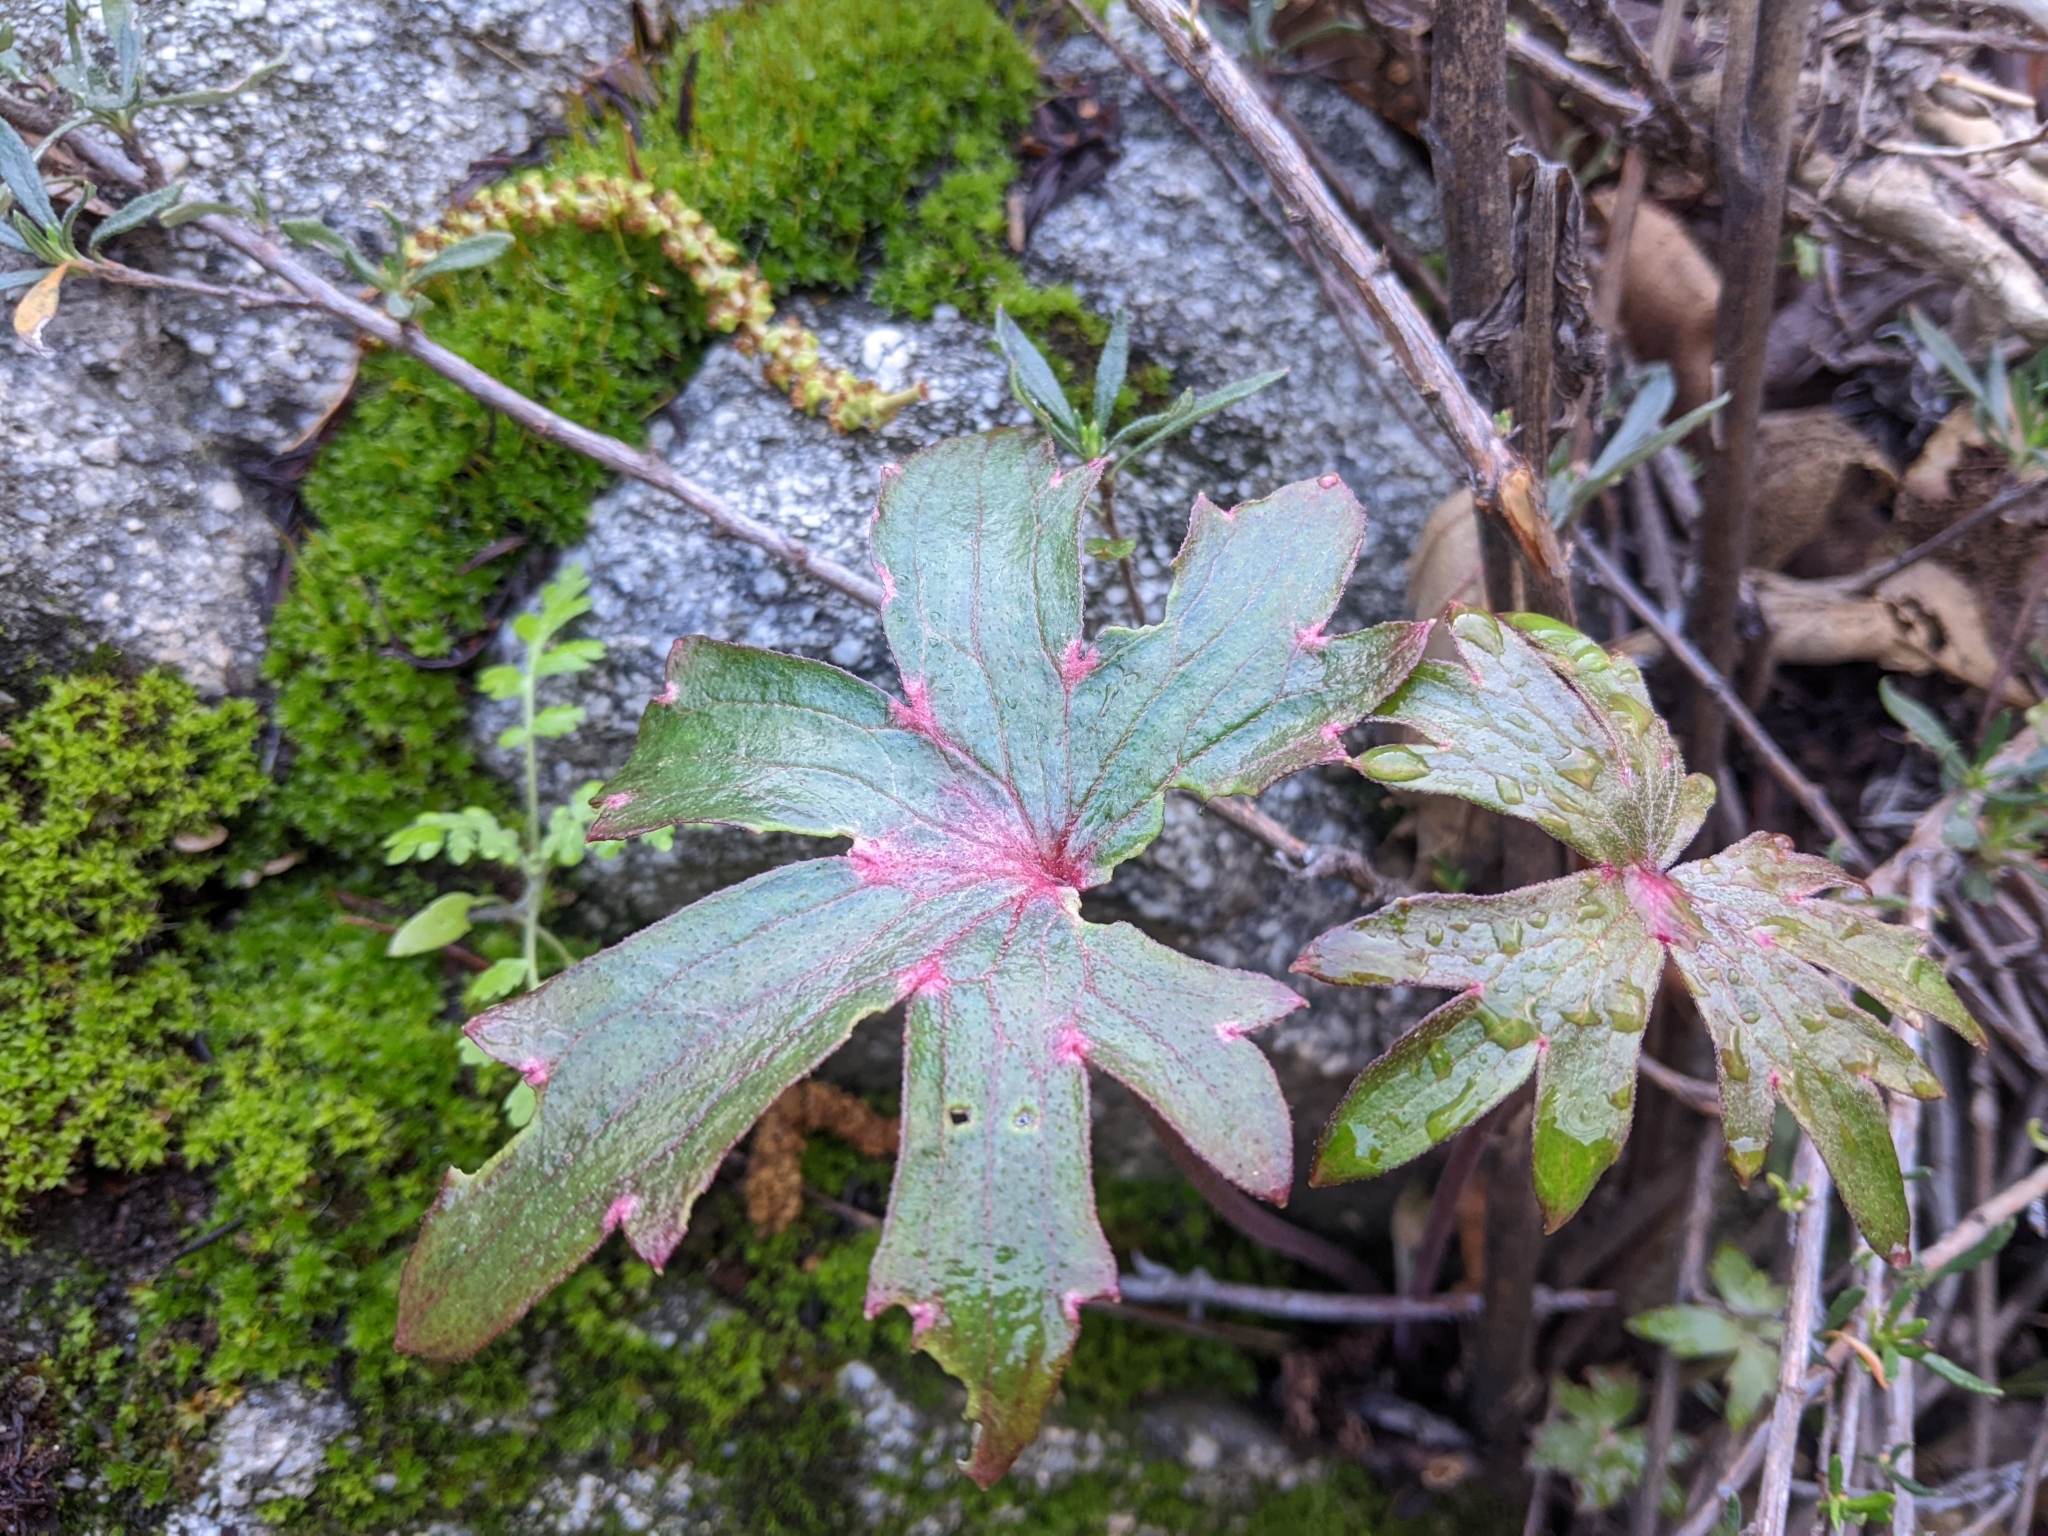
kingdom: Plantae
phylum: Tracheophyta
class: Magnoliopsida
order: Ranunculales
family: Ranunculaceae
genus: Delphinium
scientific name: Delphinium cardinale
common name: Scarlet larkspur
